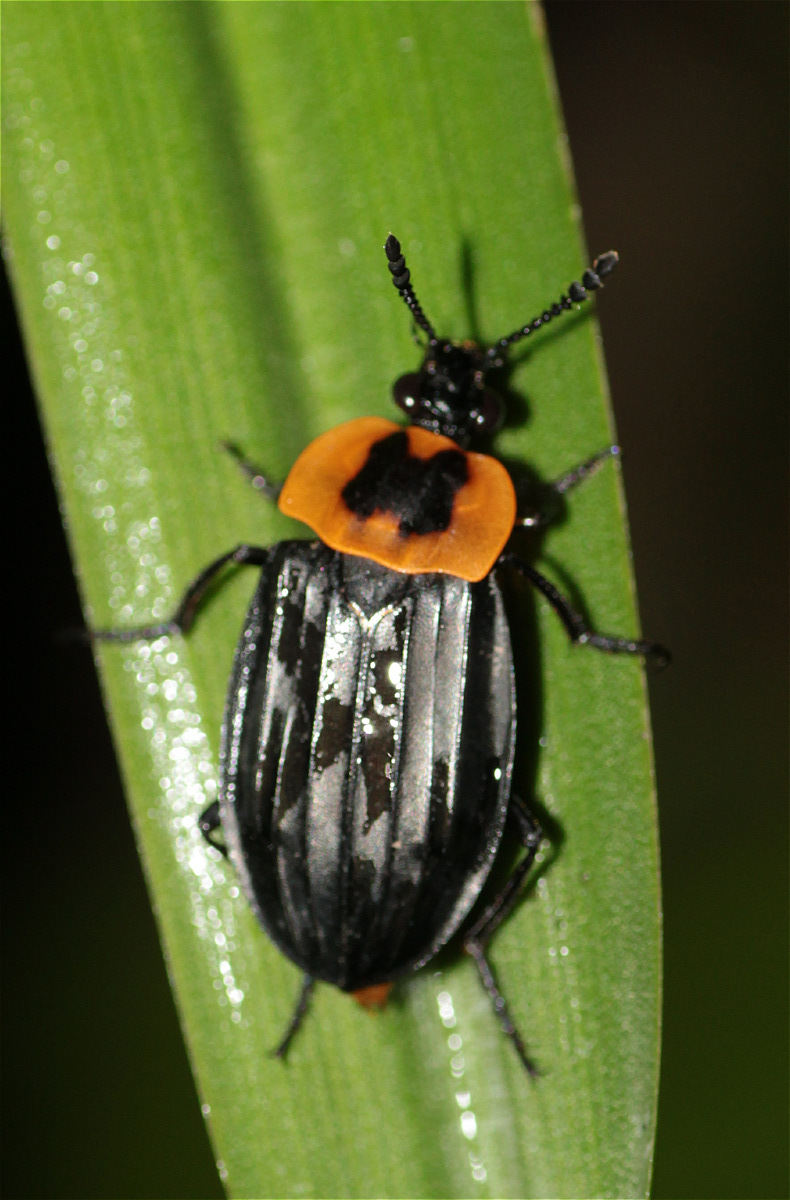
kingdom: Animalia
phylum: Arthropoda
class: Insecta
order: Coleoptera
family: Staphylinidae
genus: Oxelytrum
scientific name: Oxelytrum discicolle
